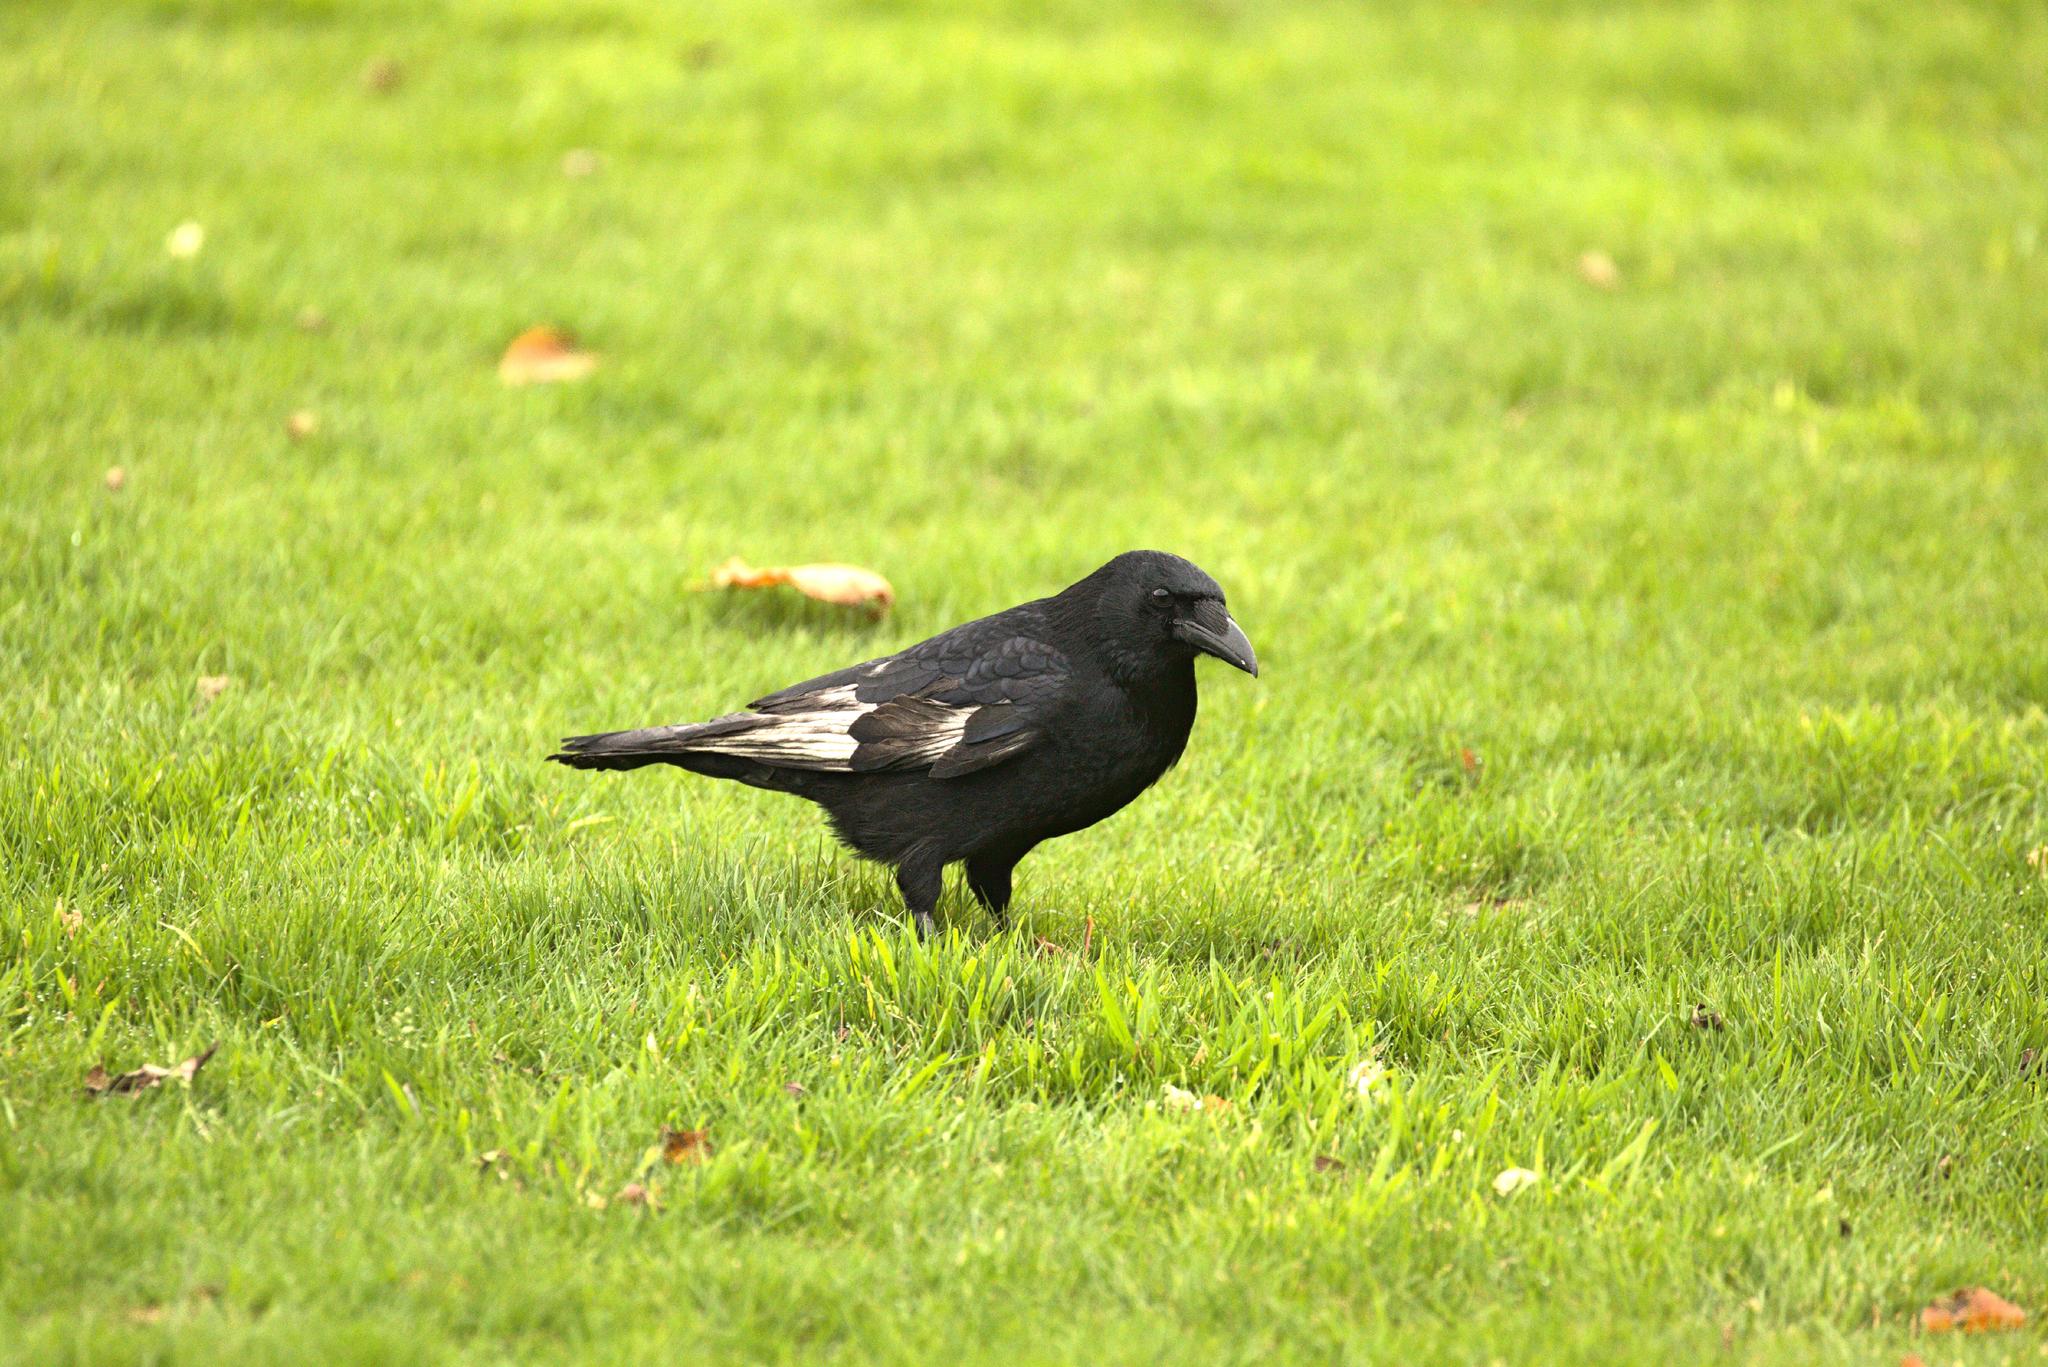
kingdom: Animalia
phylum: Chordata
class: Aves
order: Passeriformes
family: Corvidae
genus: Corvus
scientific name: Corvus corone
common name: Carrion crow
